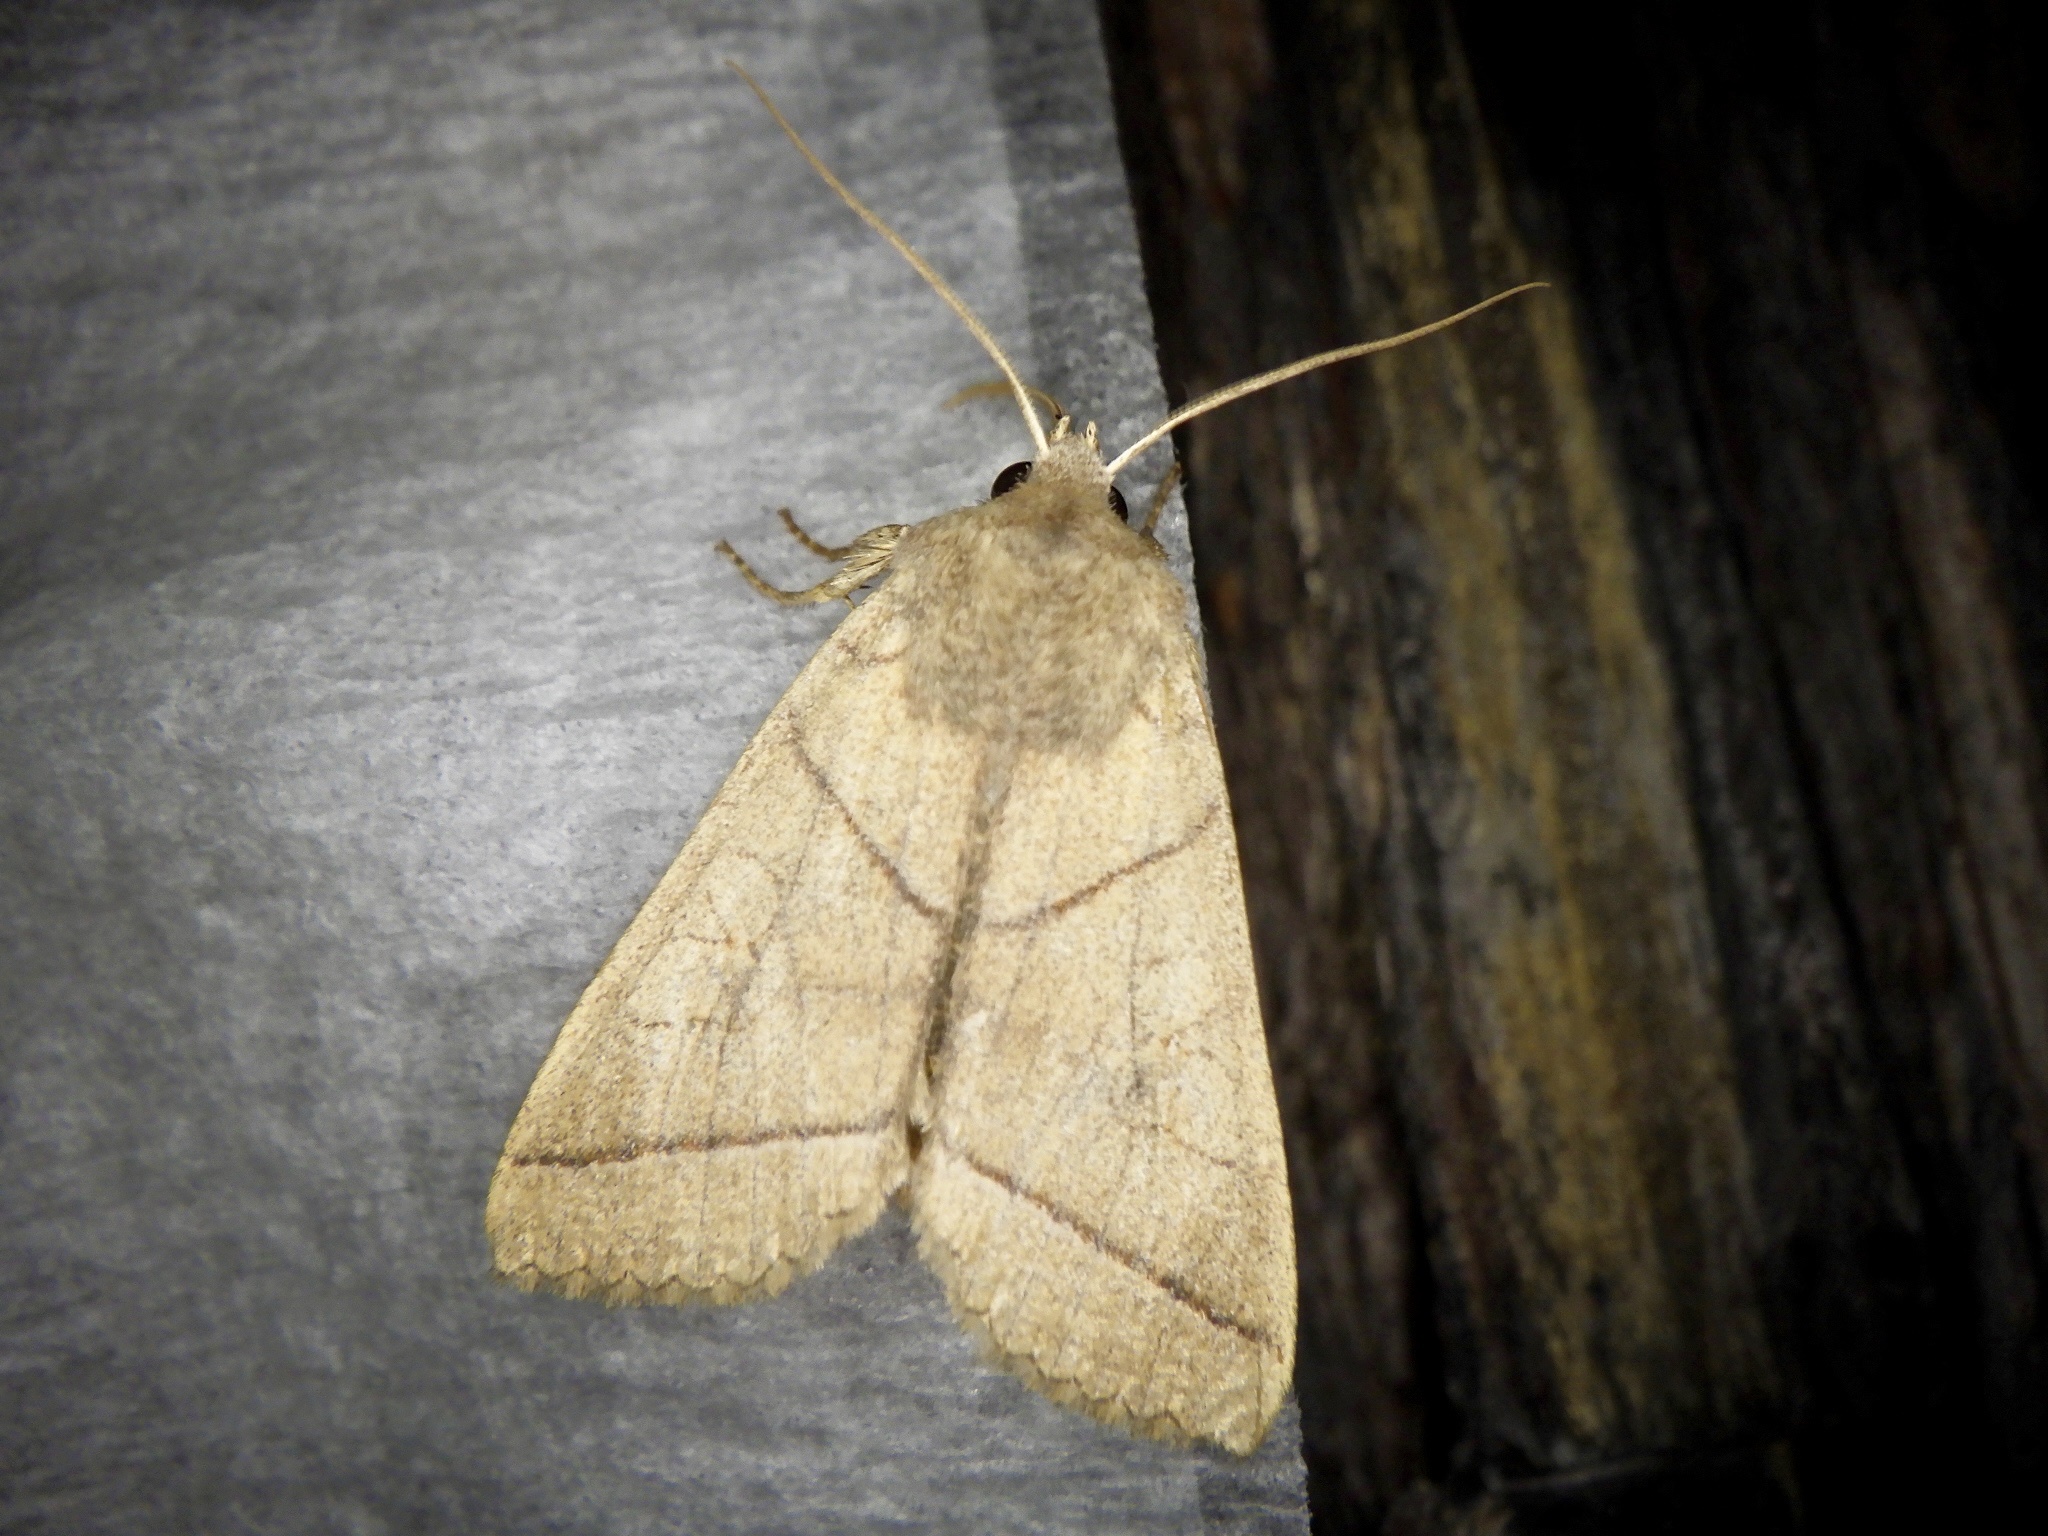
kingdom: Animalia
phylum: Arthropoda
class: Insecta
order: Lepidoptera
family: Noctuidae
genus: Telorta
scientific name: Telorta divergens
